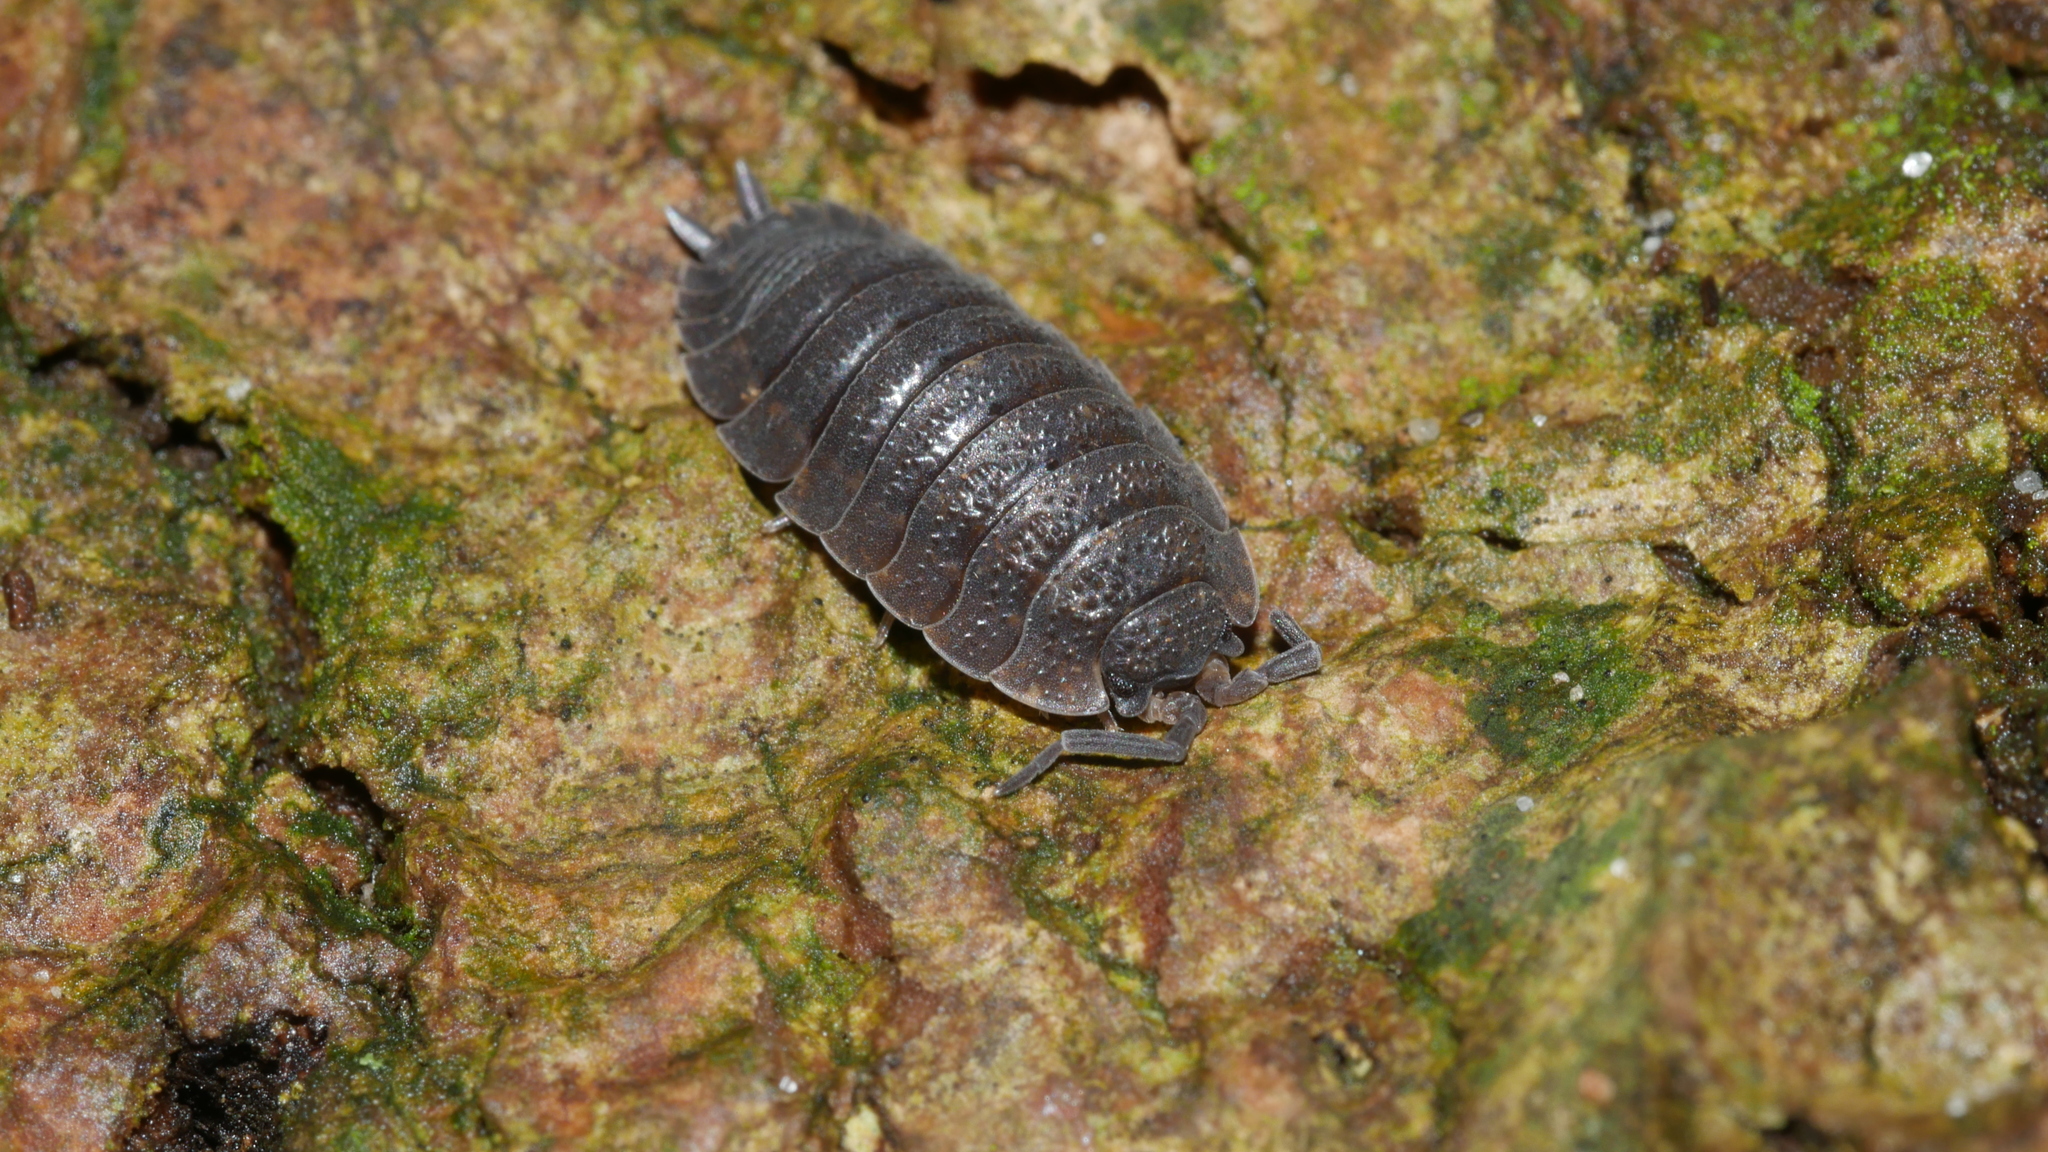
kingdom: Animalia
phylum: Arthropoda
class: Malacostraca
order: Isopoda
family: Porcellionidae
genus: Porcellio
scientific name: Porcellio scaber
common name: Common rough woodlouse
